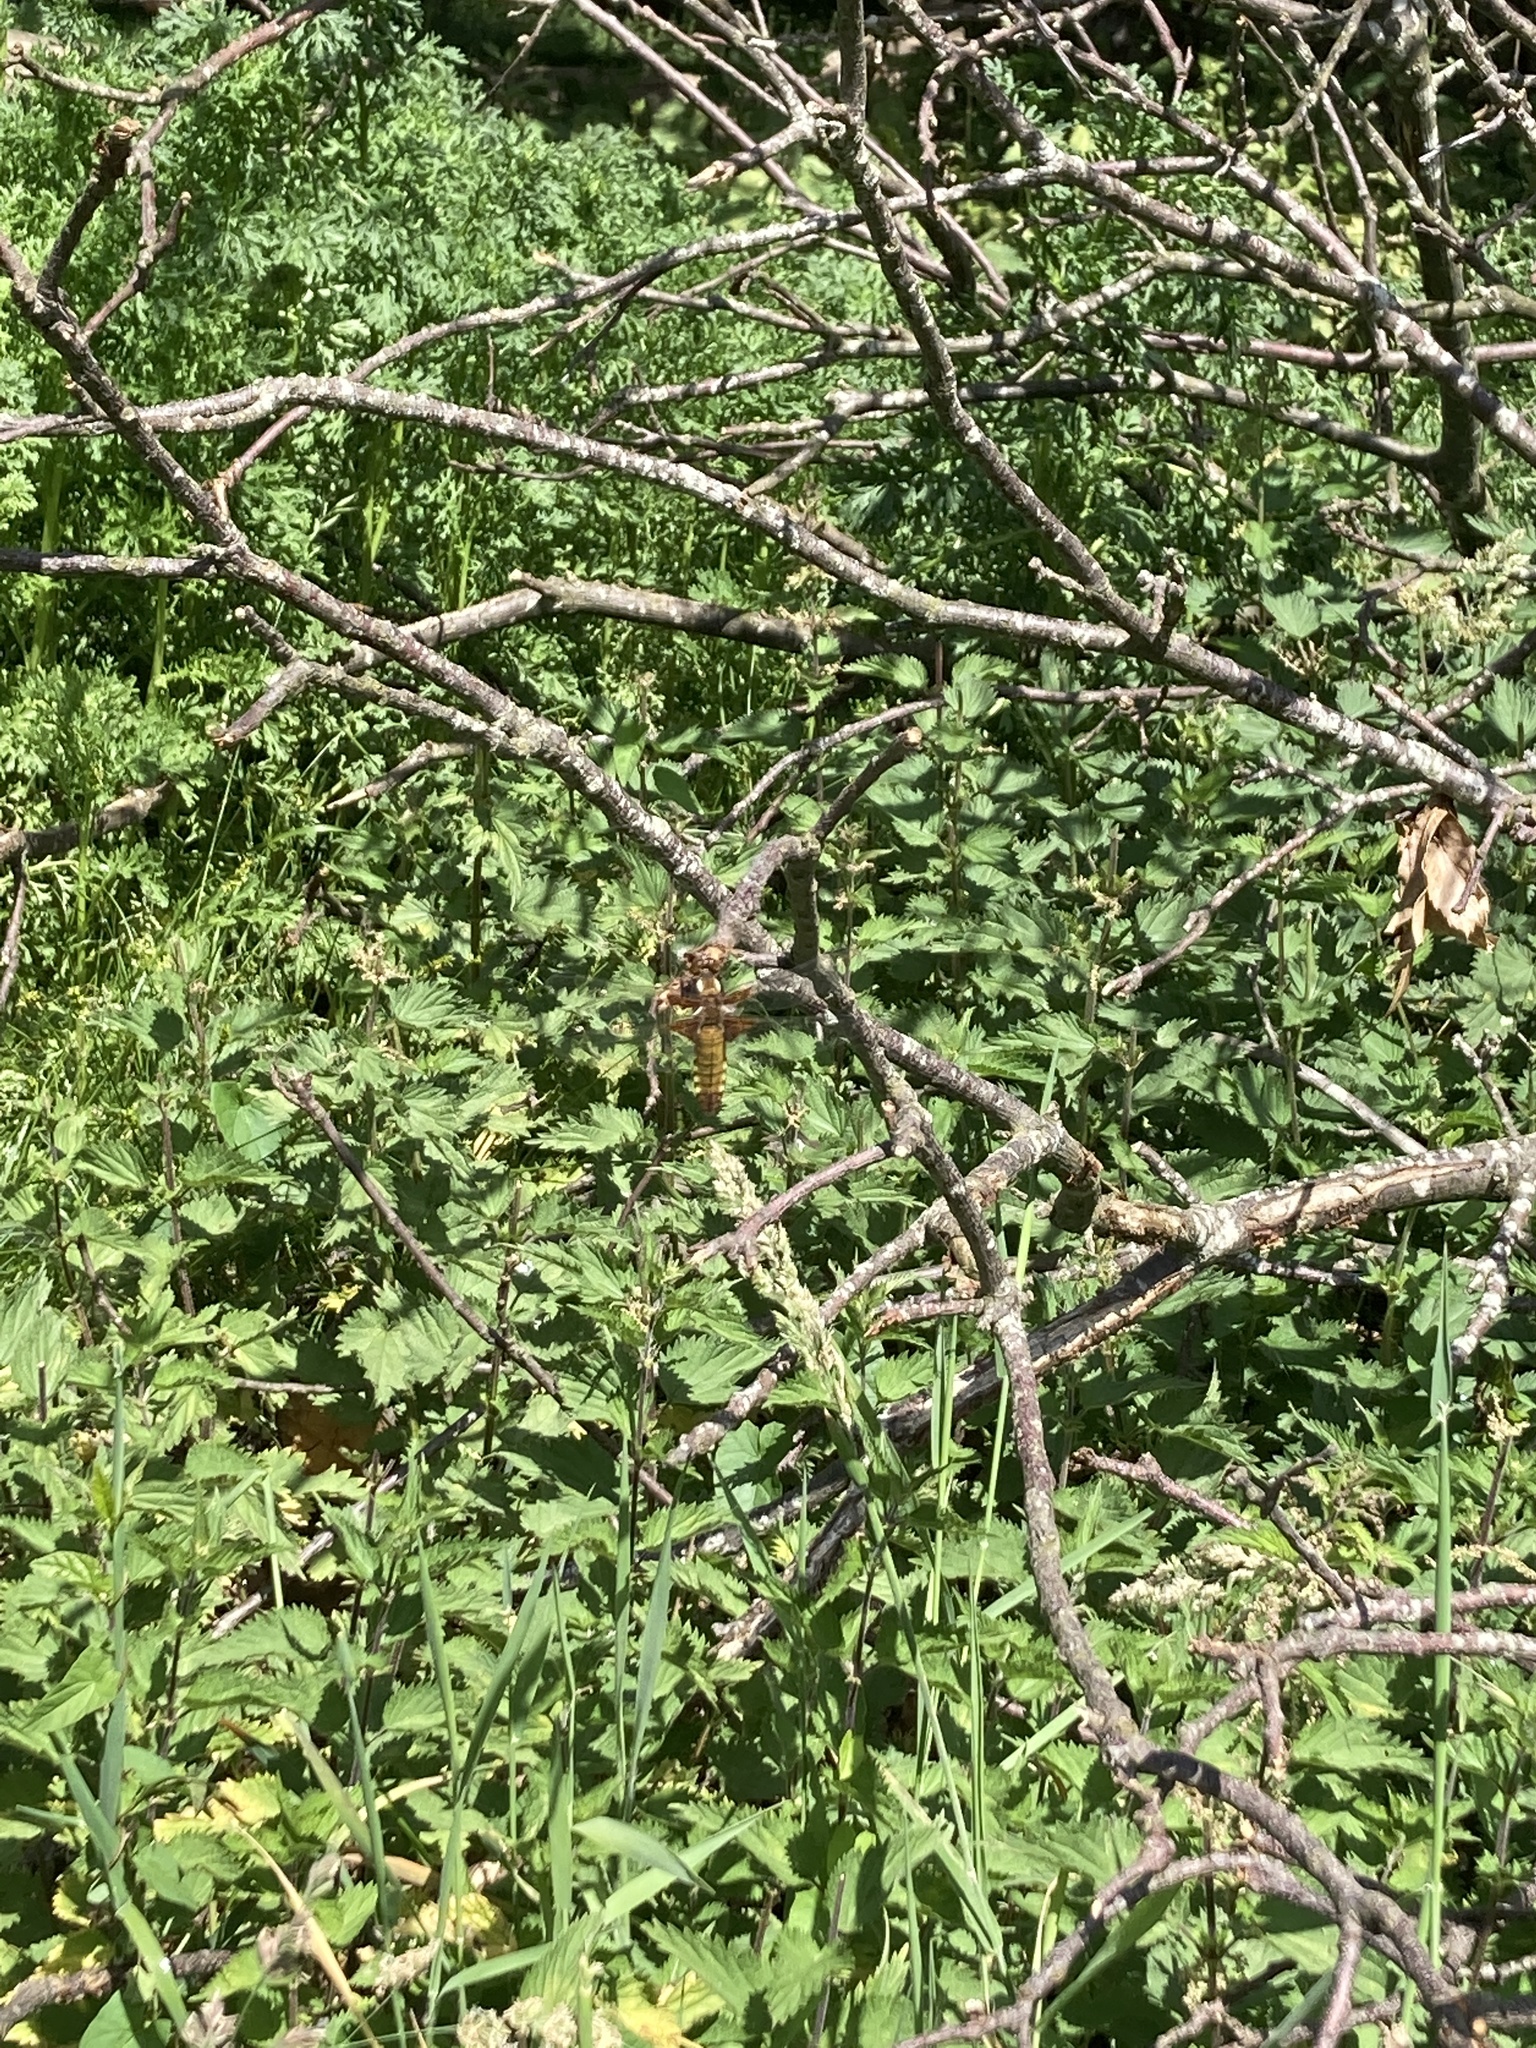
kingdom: Animalia
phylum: Arthropoda
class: Insecta
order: Odonata
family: Libellulidae
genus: Libellula
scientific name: Libellula depressa
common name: Broad-bodied chaser
